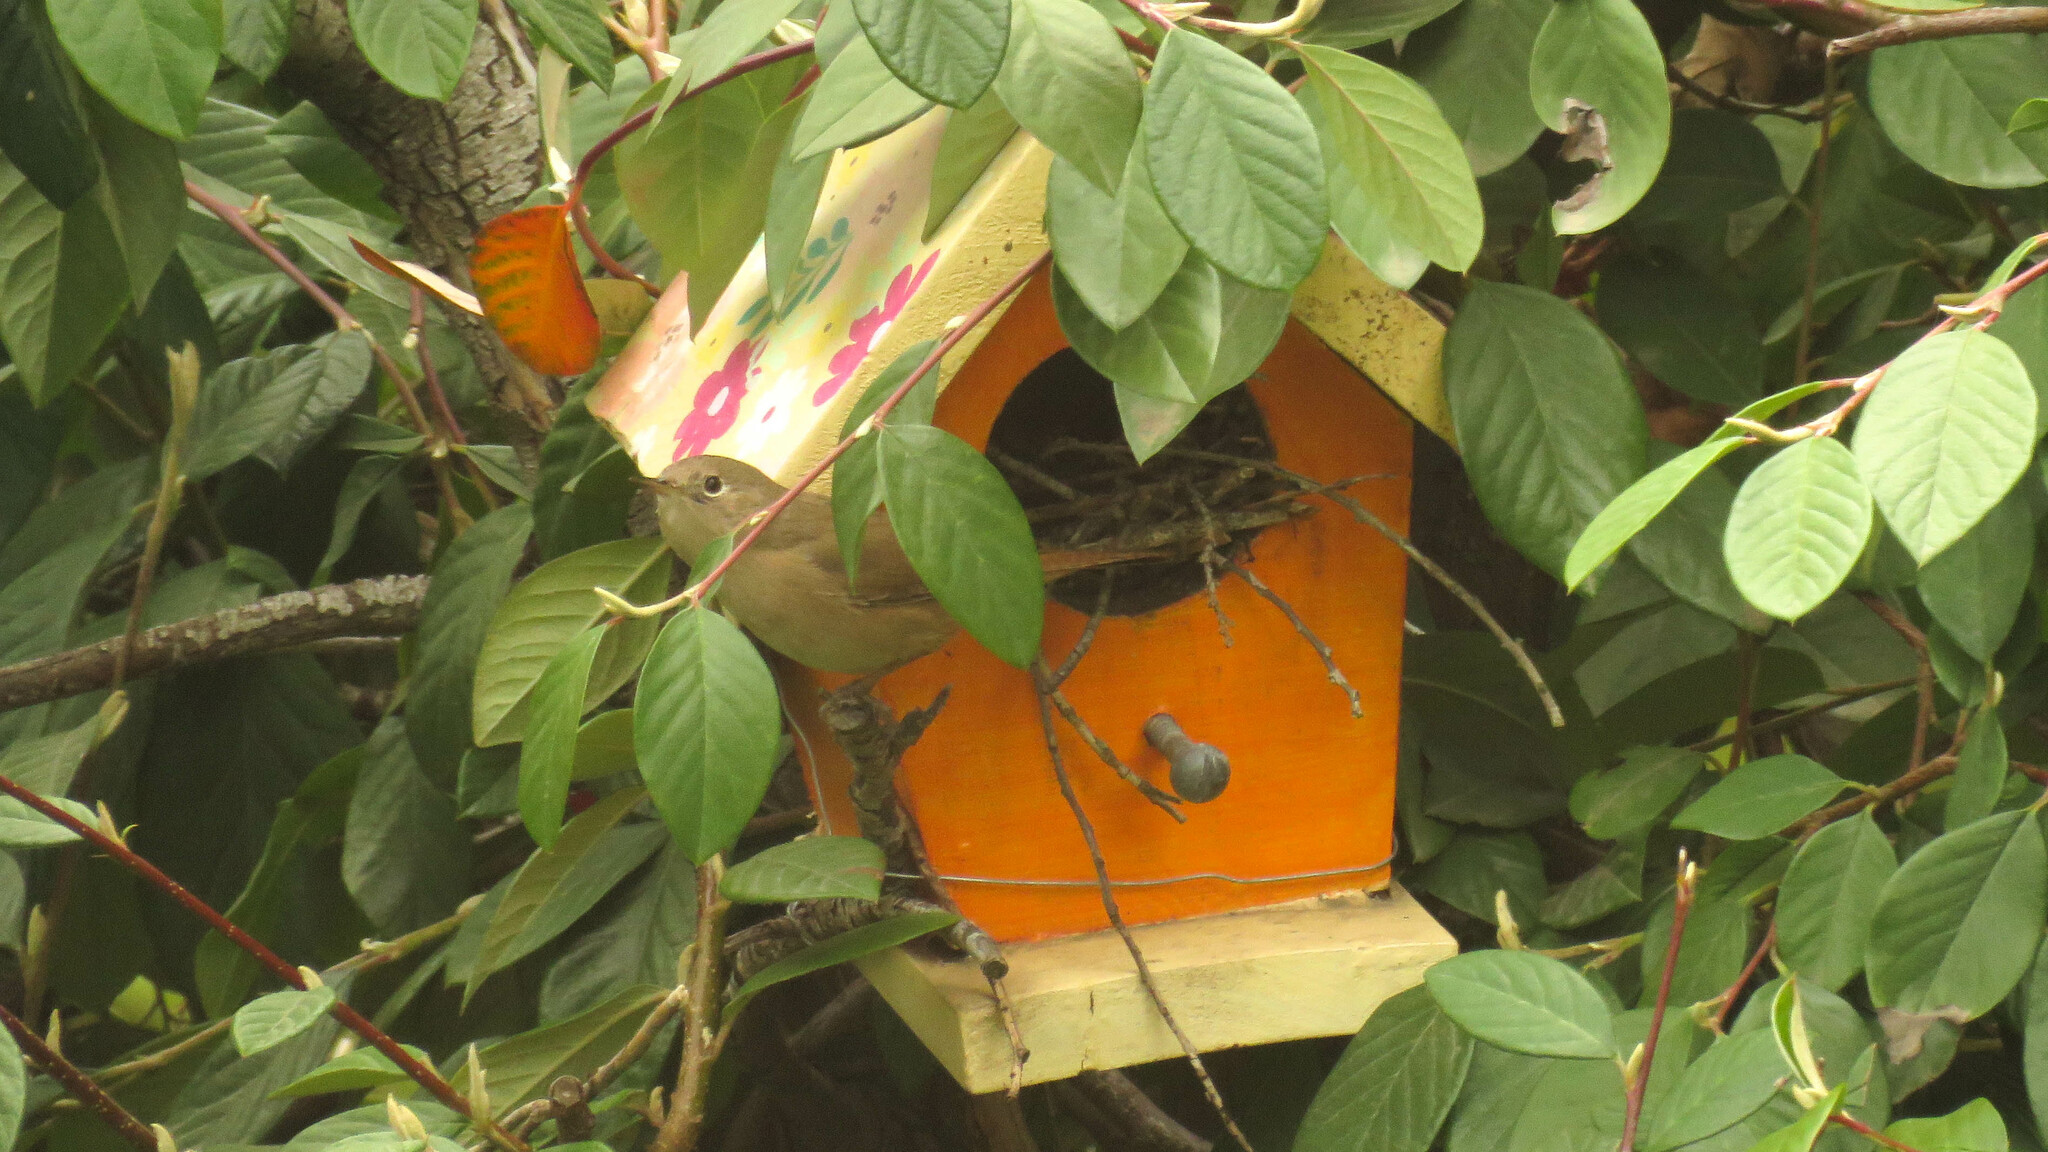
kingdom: Animalia
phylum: Chordata
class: Aves
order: Passeriformes
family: Troglodytidae
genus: Troglodytes
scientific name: Troglodytes aedon
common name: House wren
